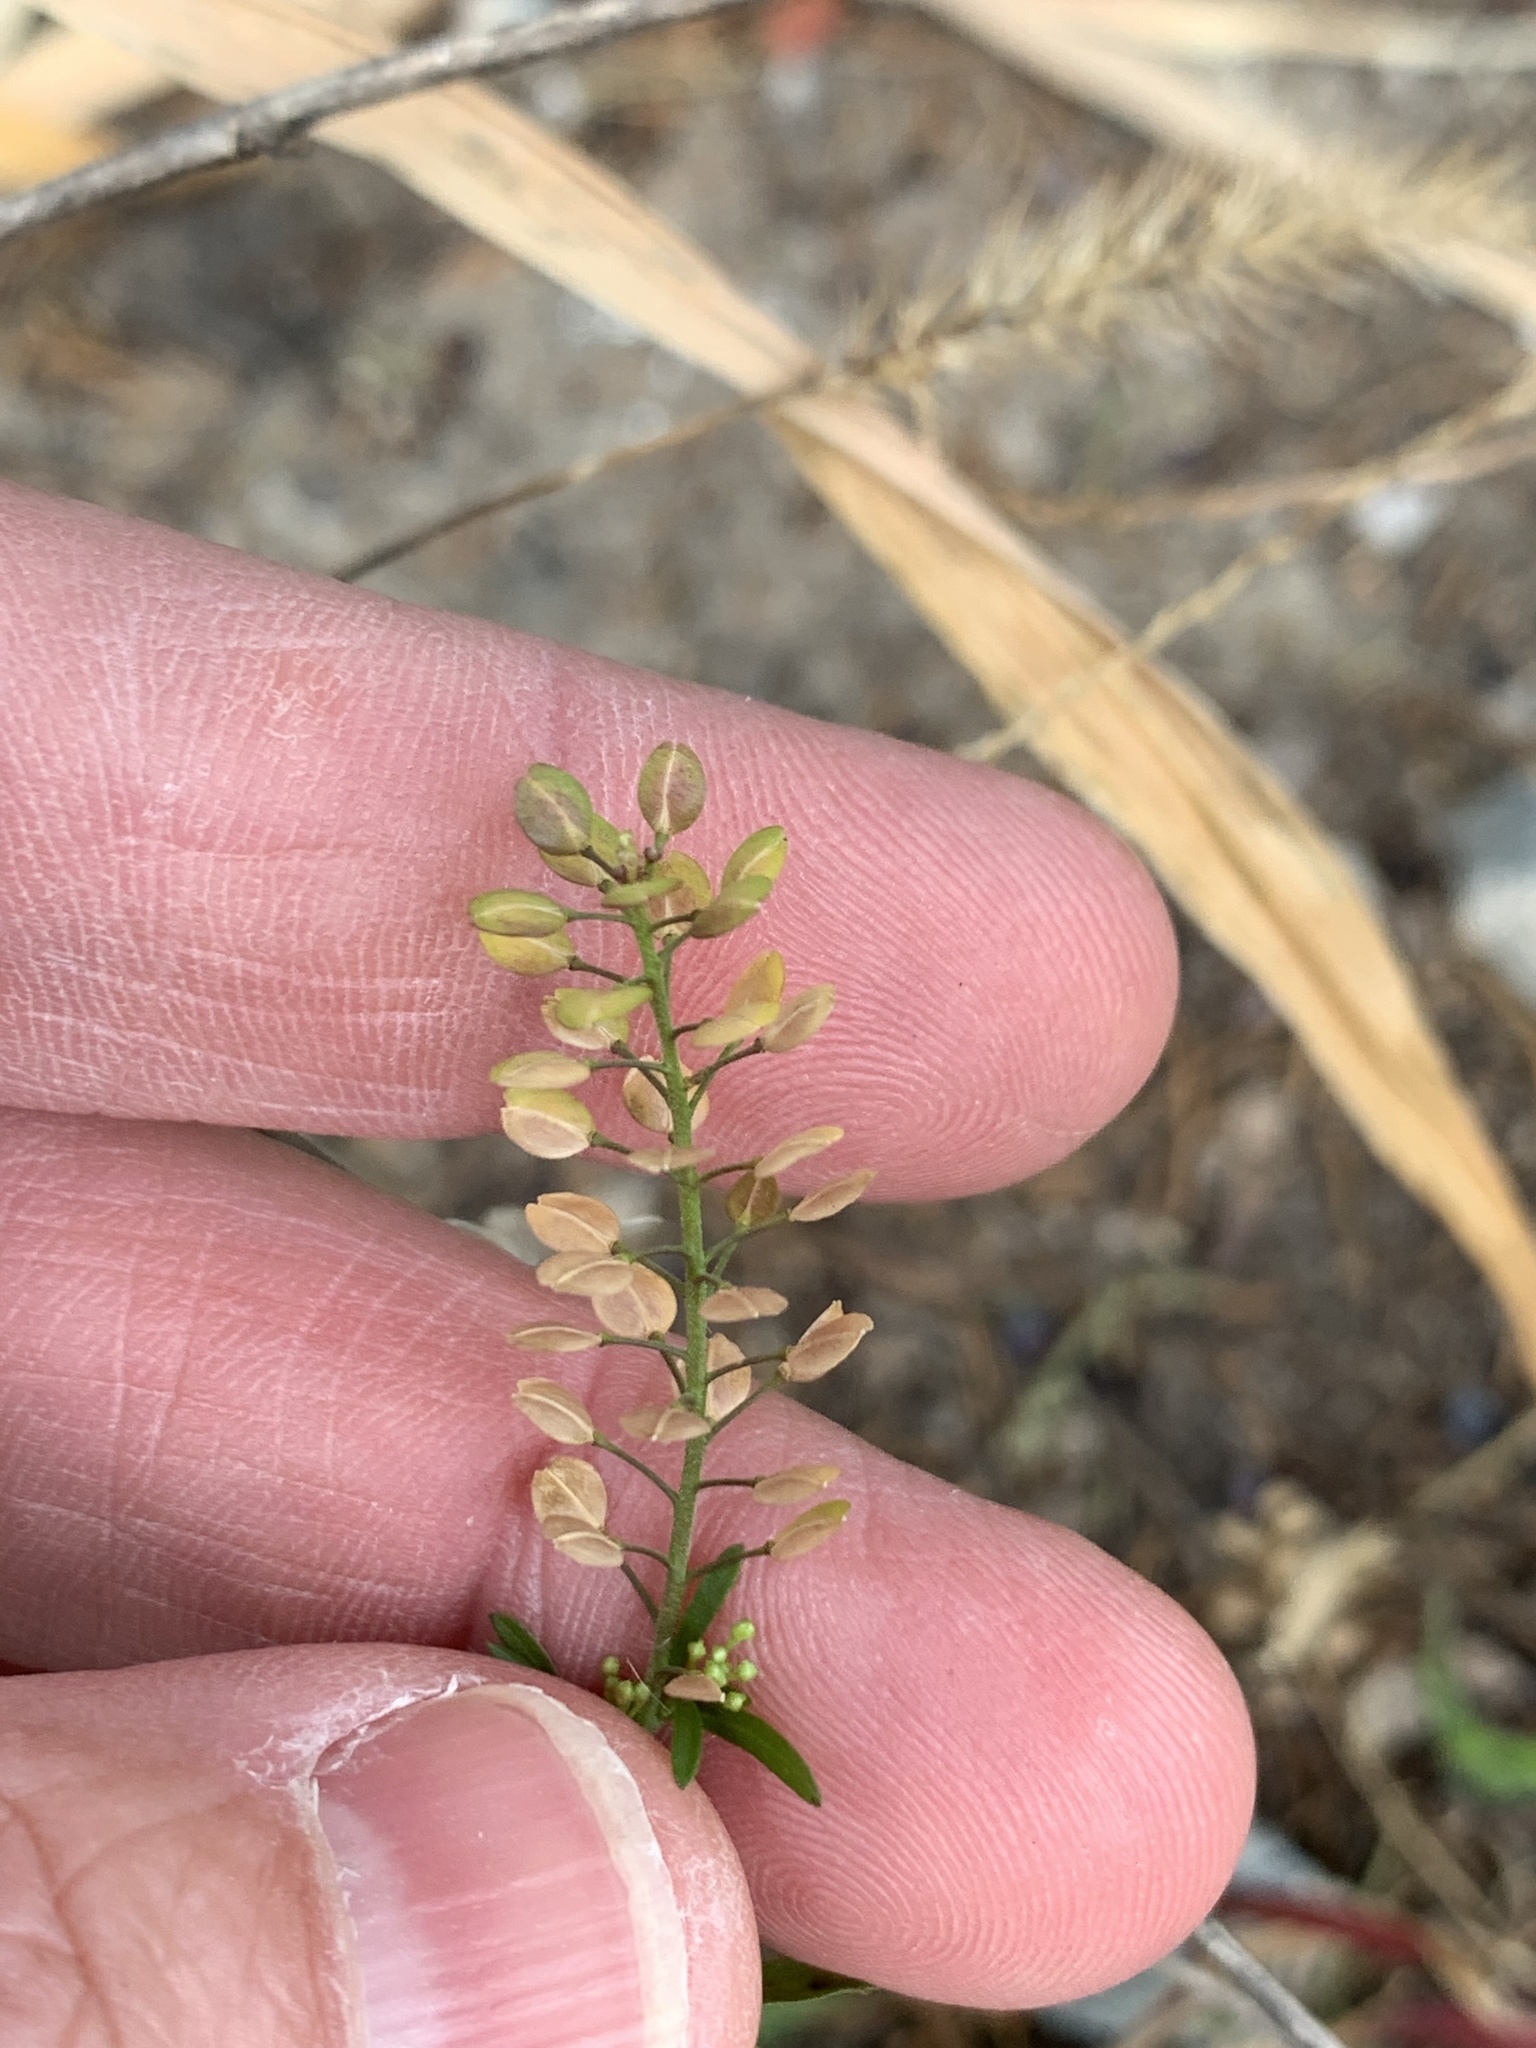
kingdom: Plantae
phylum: Tracheophyta
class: Magnoliopsida
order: Brassicales
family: Brassicaceae
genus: Lepidium
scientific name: Lepidium virginicum
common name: Least pepperwort
